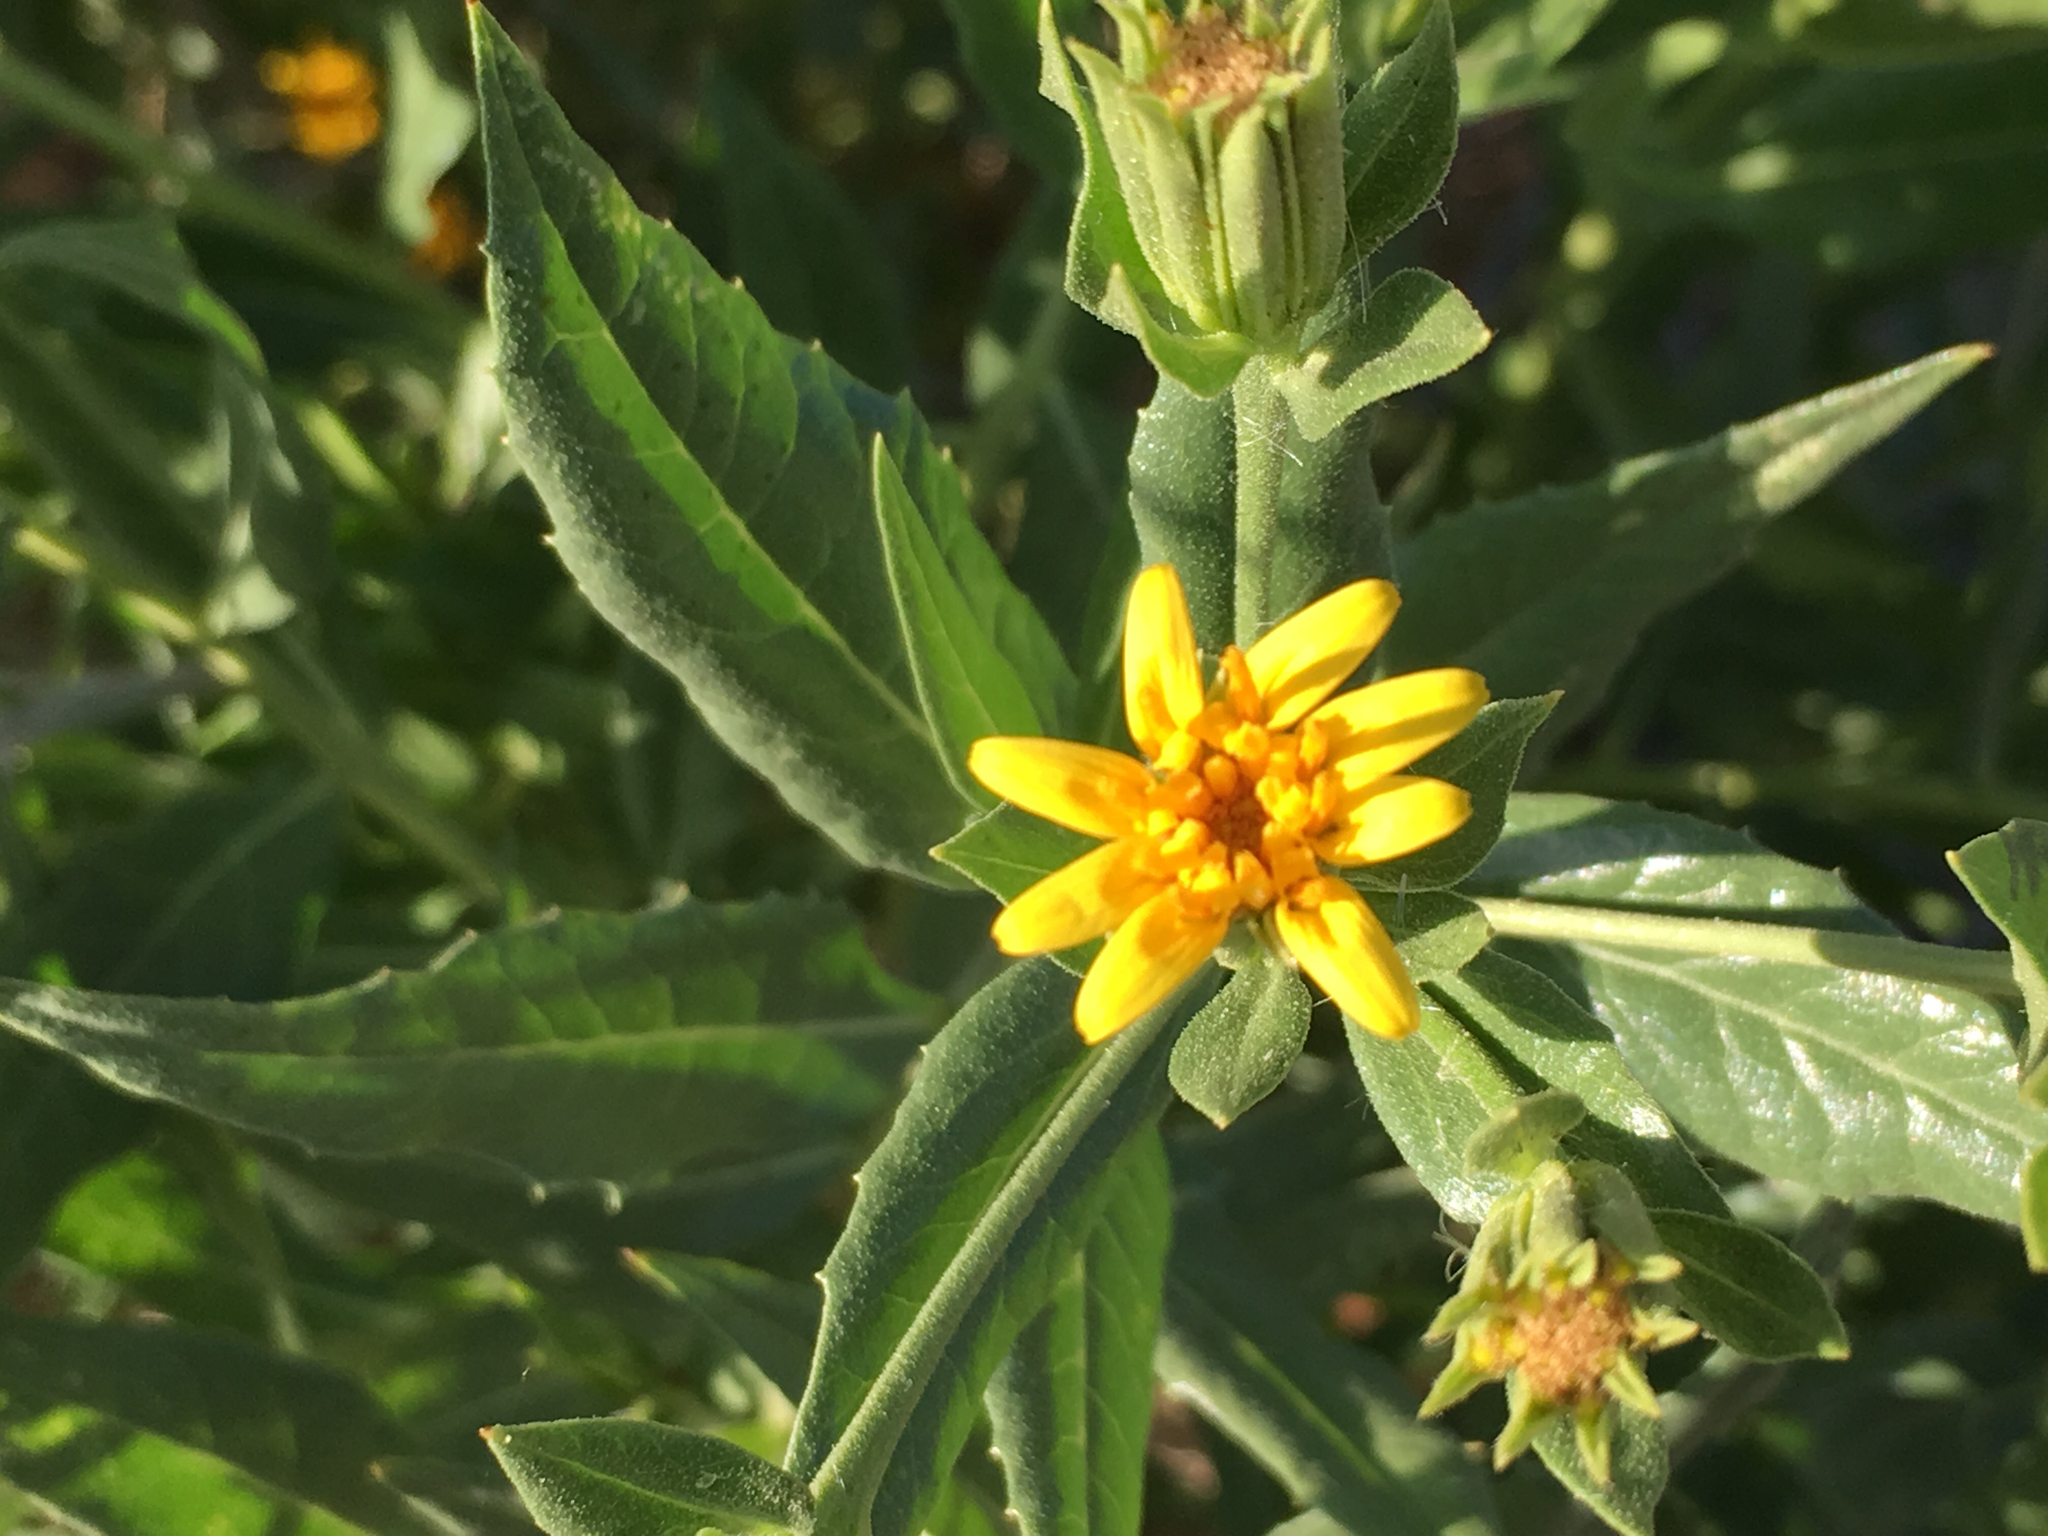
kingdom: Plantae
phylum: Tracheophyta
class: Magnoliopsida
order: Asterales
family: Asteraceae
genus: Trixis
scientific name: Trixis californica
